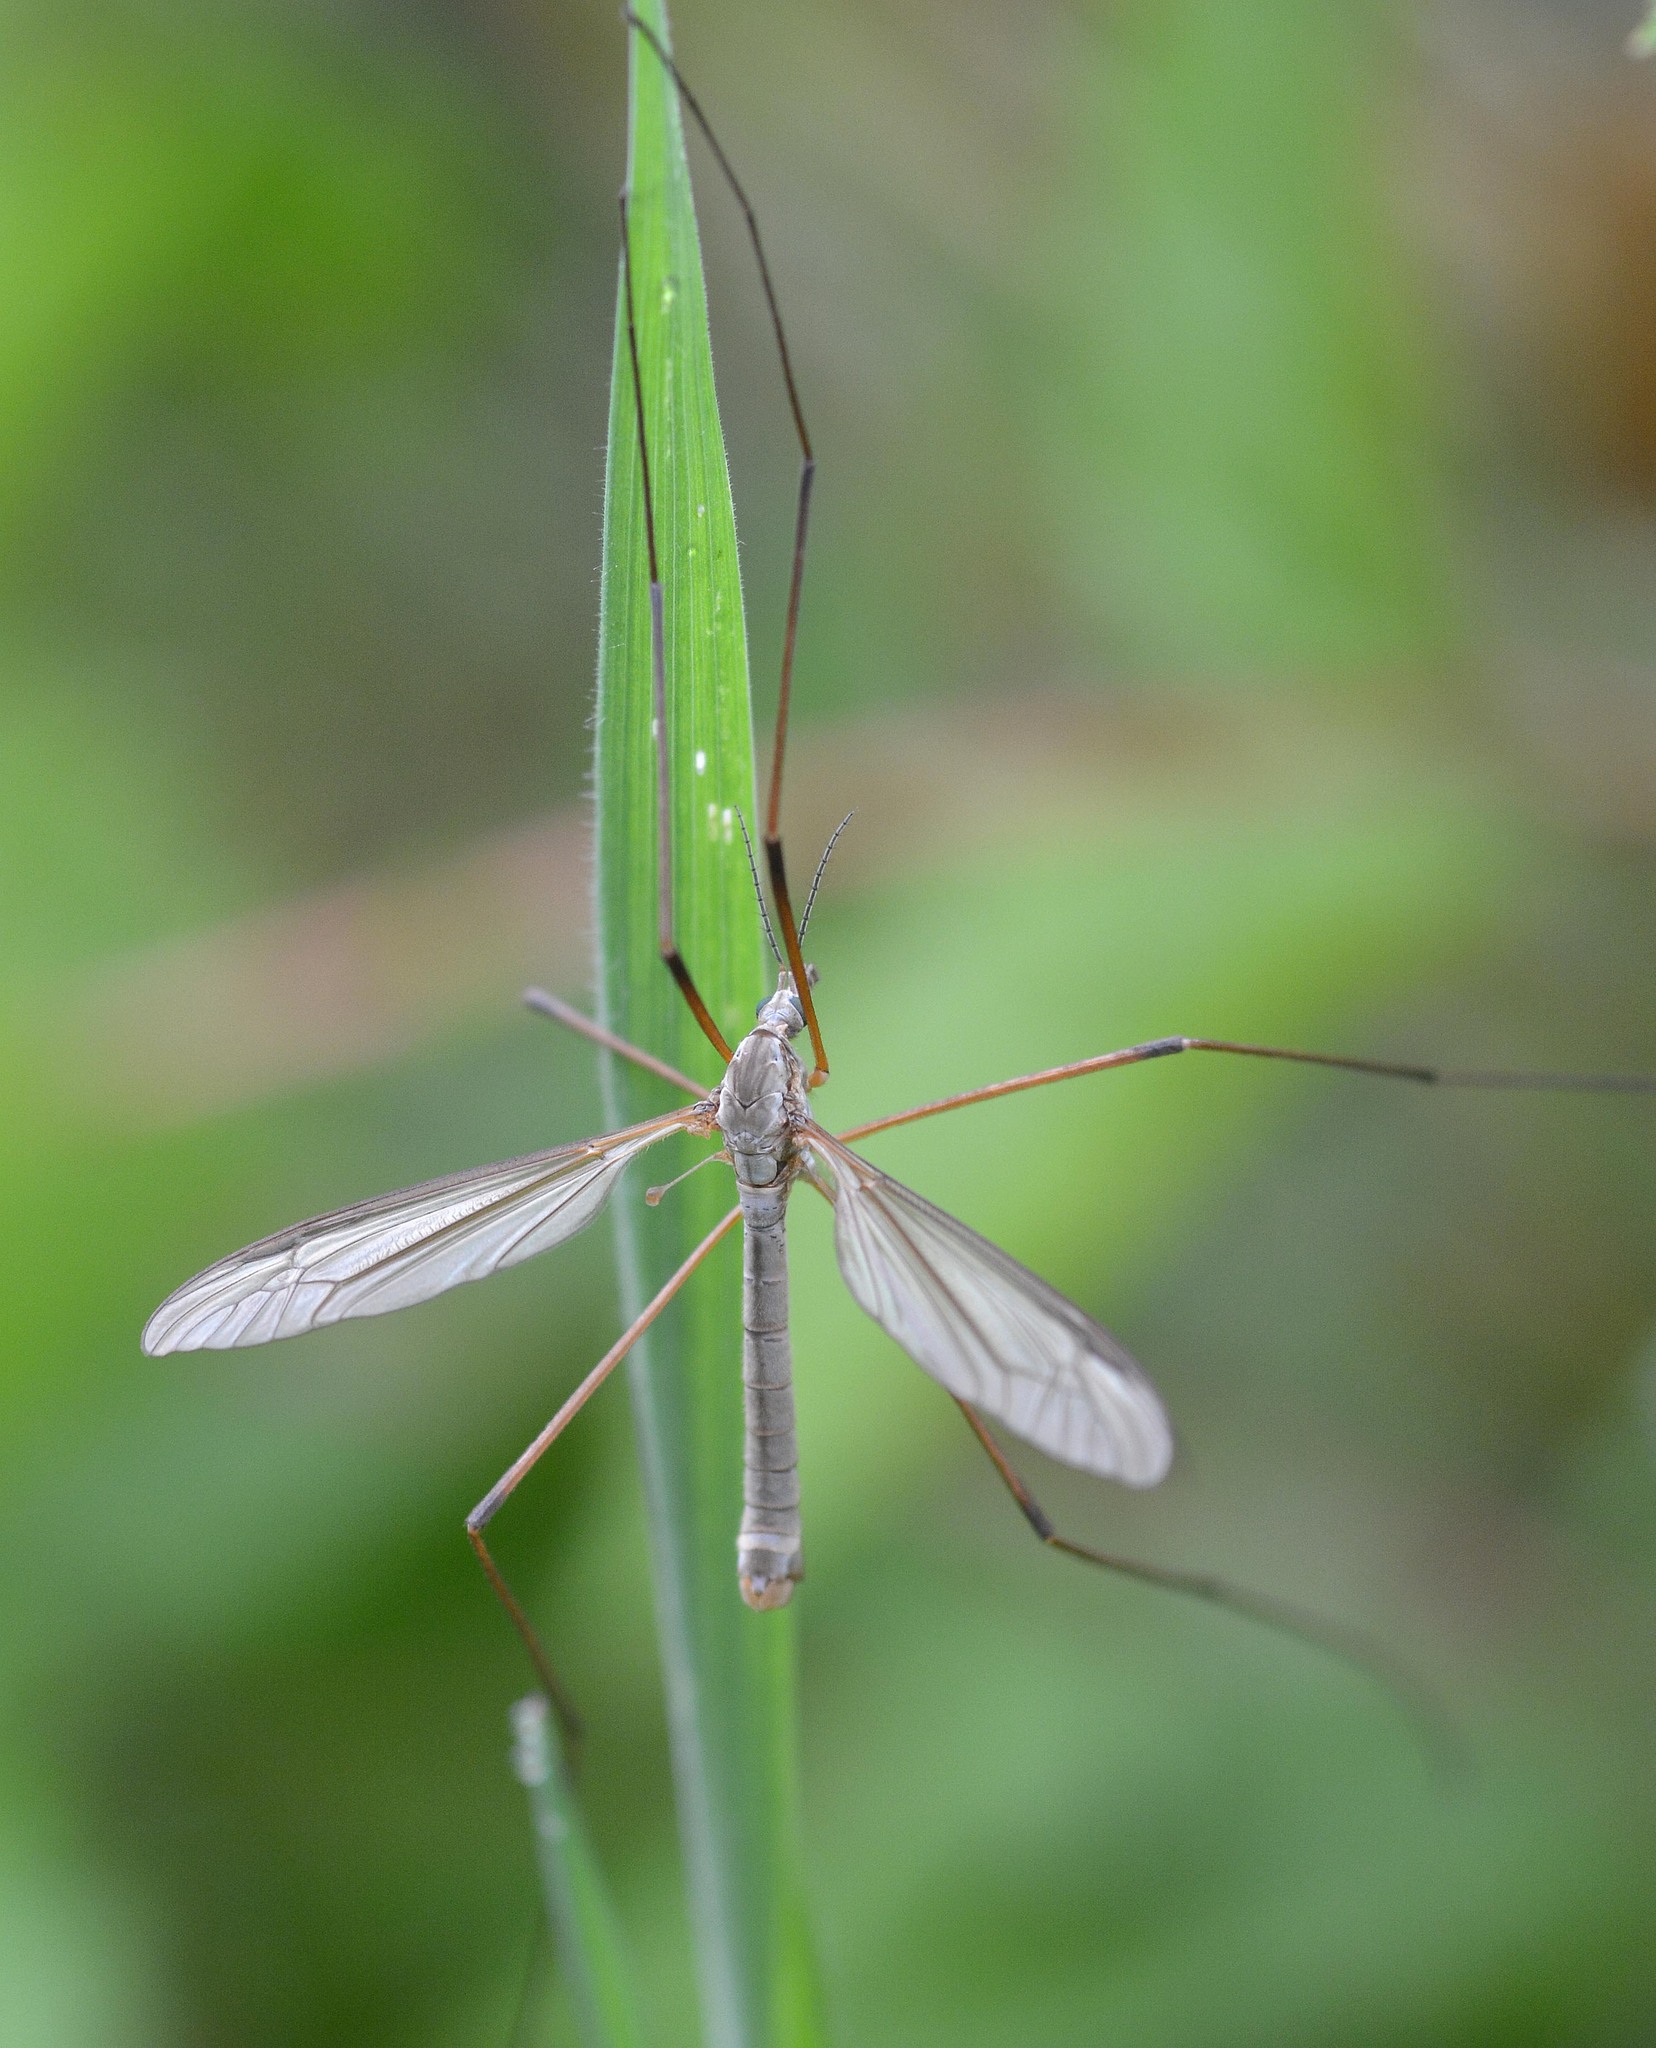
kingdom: Animalia
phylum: Arthropoda
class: Insecta
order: Diptera
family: Tipulidae
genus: Tipula
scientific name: Tipula oleracea
